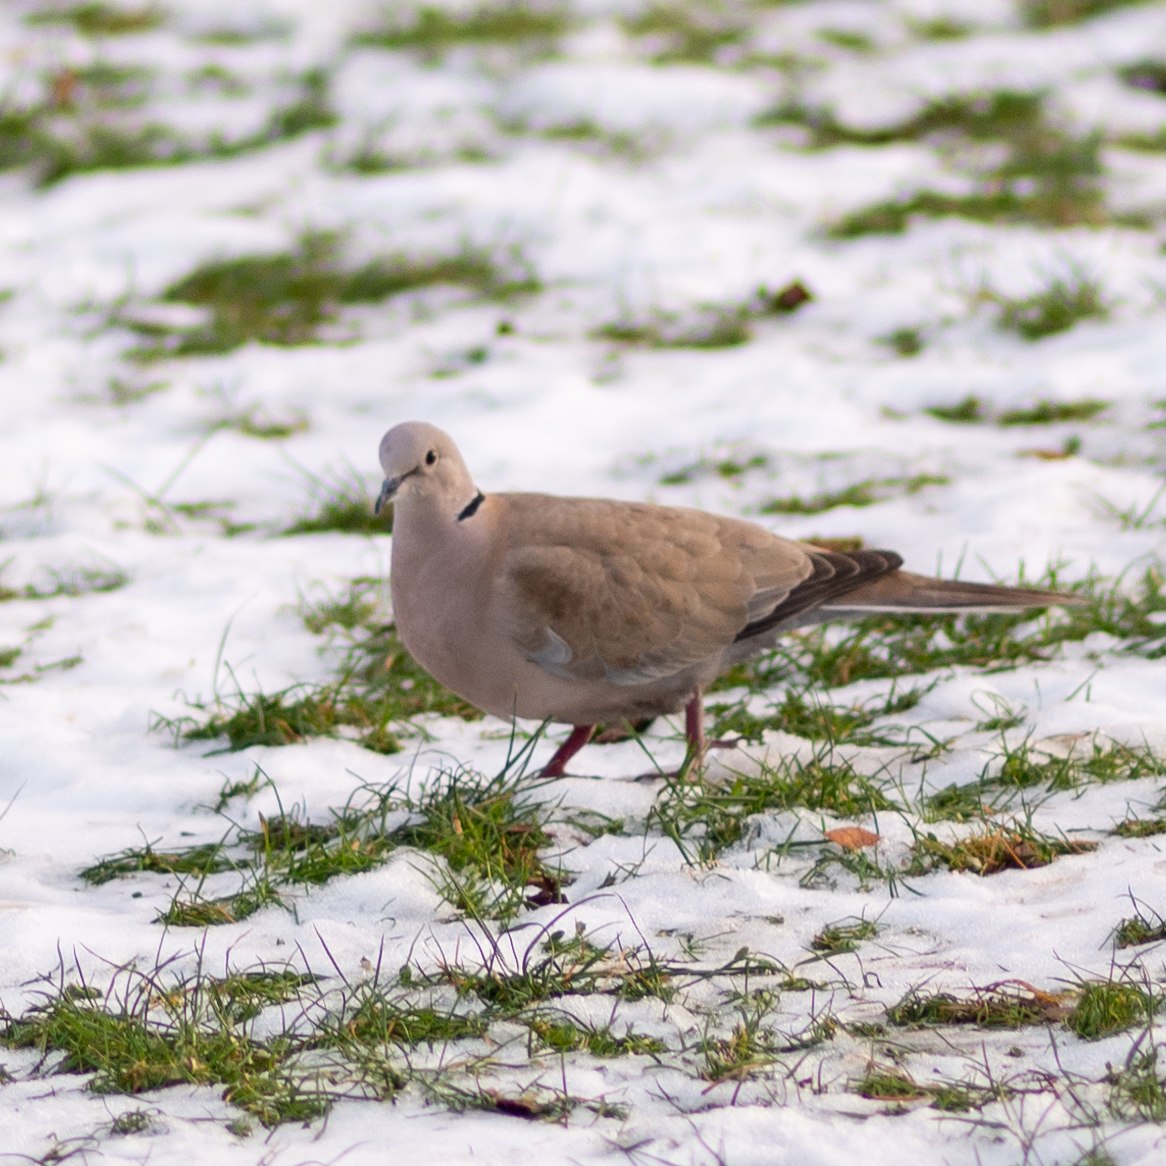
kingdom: Animalia
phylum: Chordata
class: Aves
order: Columbiformes
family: Columbidae
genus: Streptopelia
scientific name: Streptopelia decaocto
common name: Eurasian collared dove
